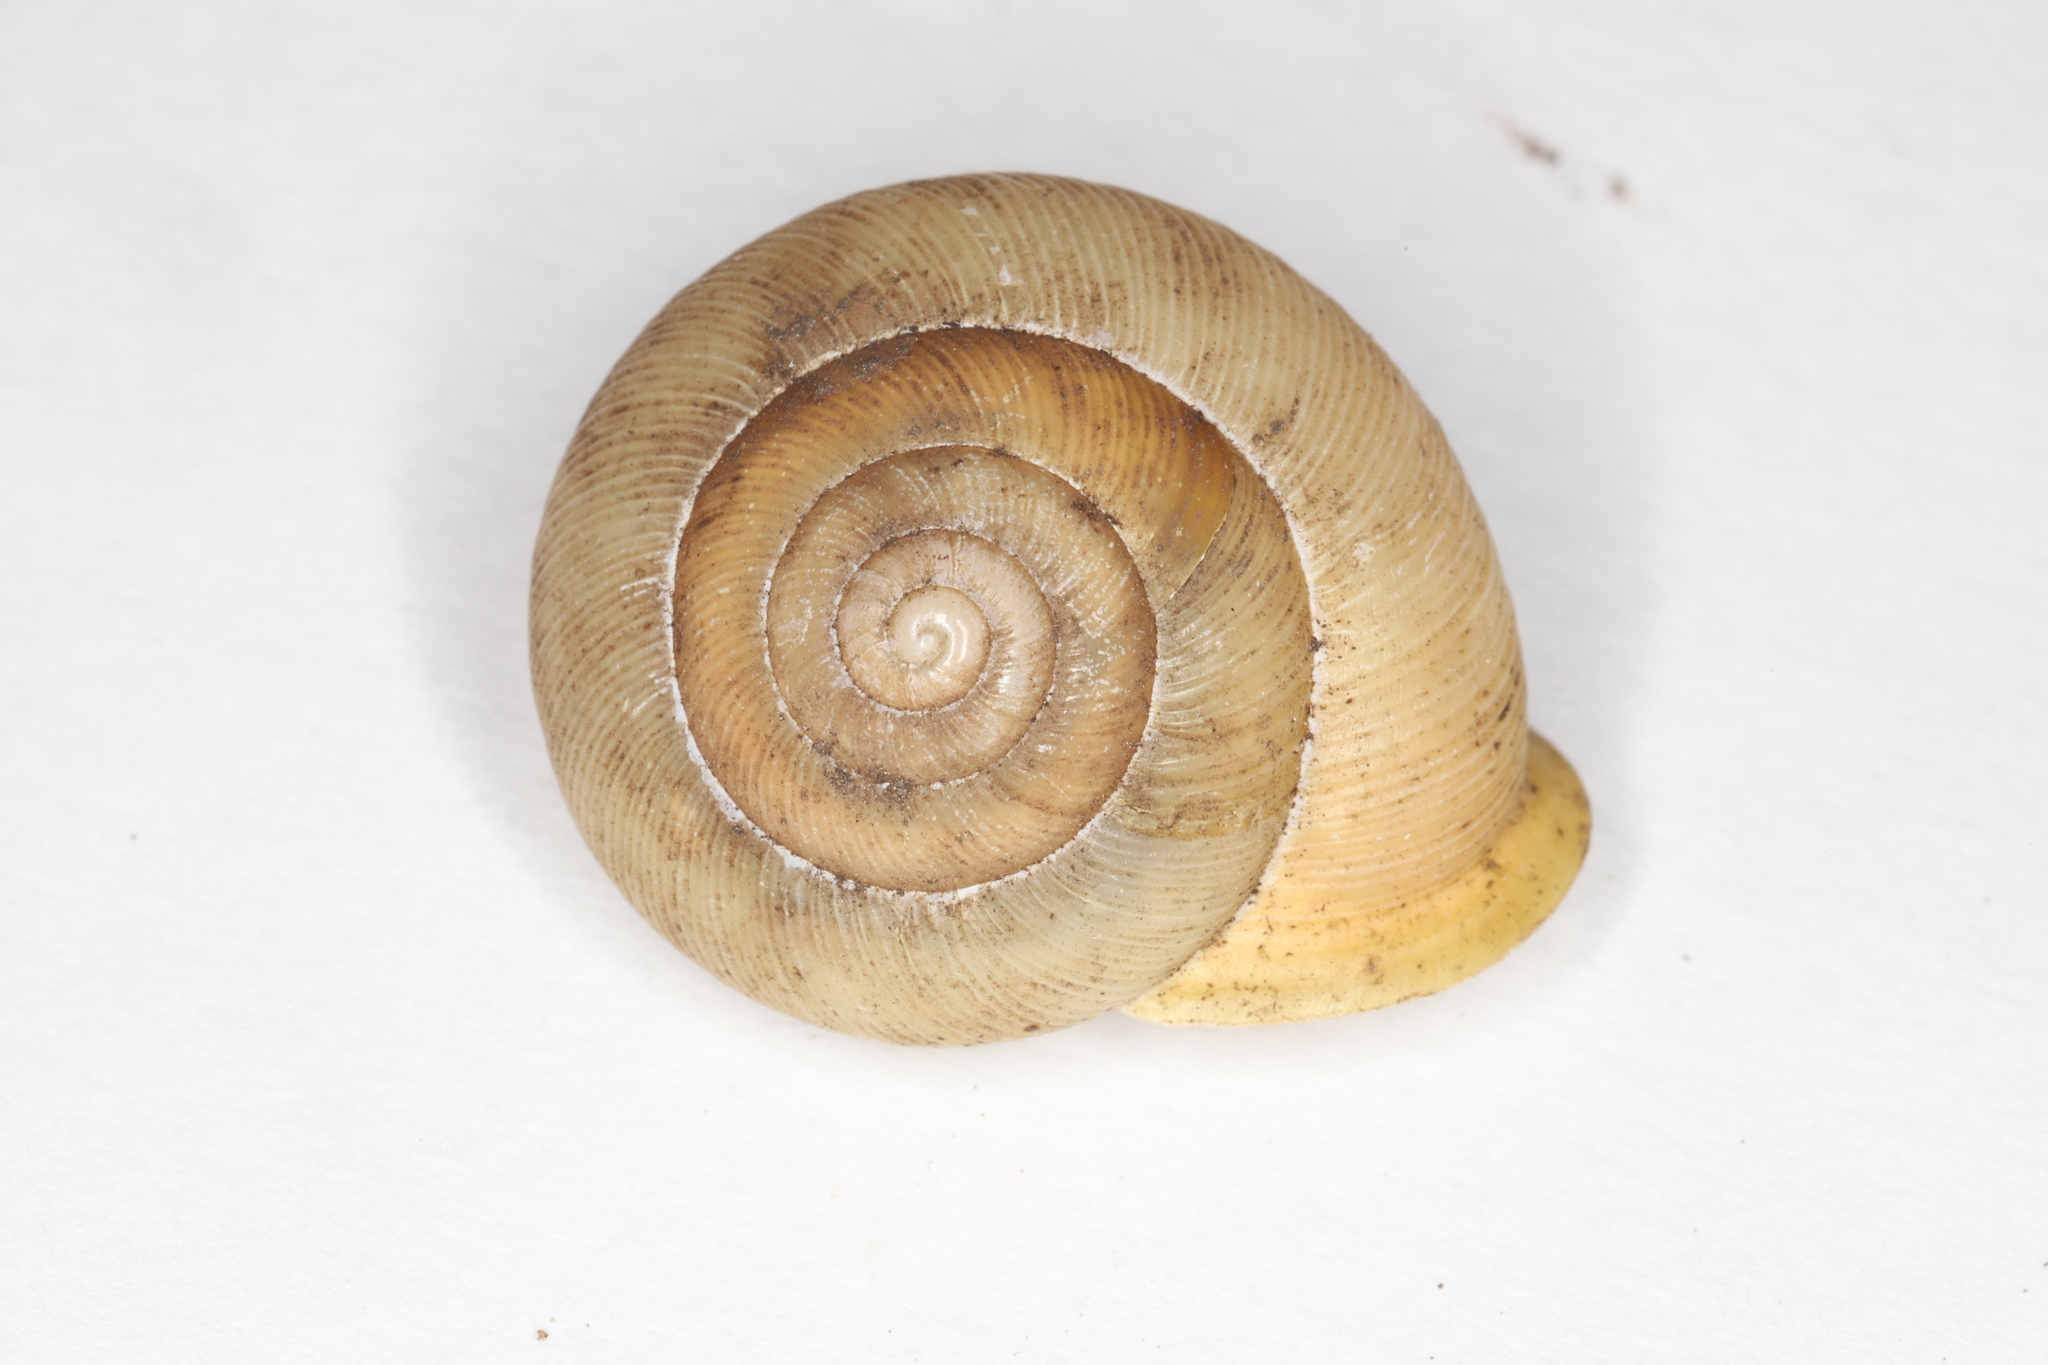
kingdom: Animalia
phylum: Mollusca
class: Gastropoda
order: Stylommatophora
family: Polygyridae
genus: Mesodon
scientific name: Mesodon thyroidus
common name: White-lip globe
